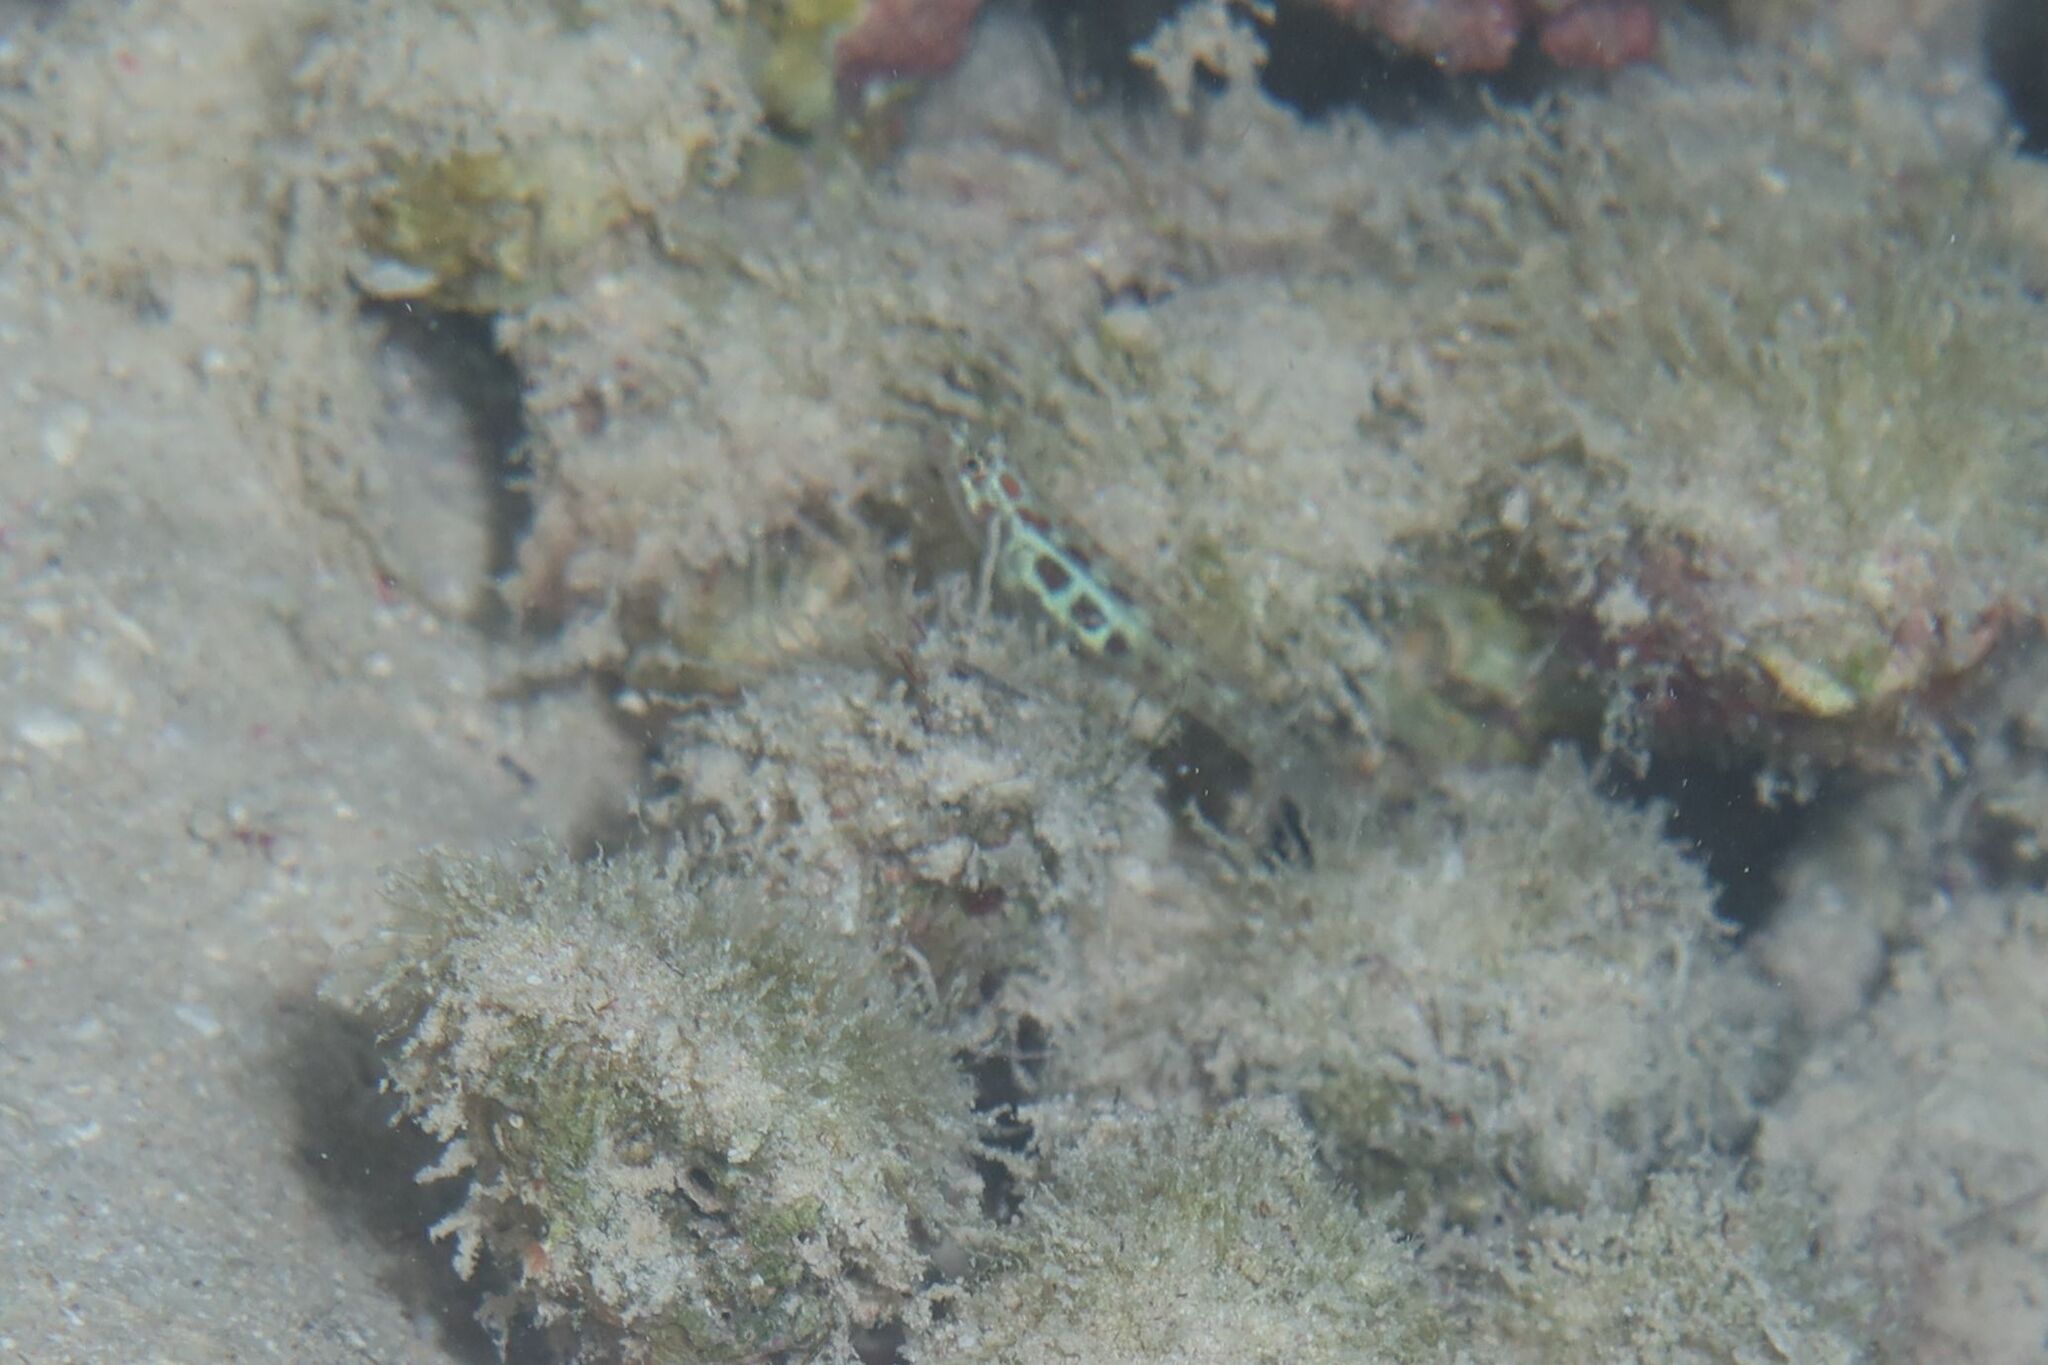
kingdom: Animalia
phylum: Chordata
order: Perciformes
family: Gobiidae
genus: Eviota
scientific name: Eviota guttata
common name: Green pygmy-goby
